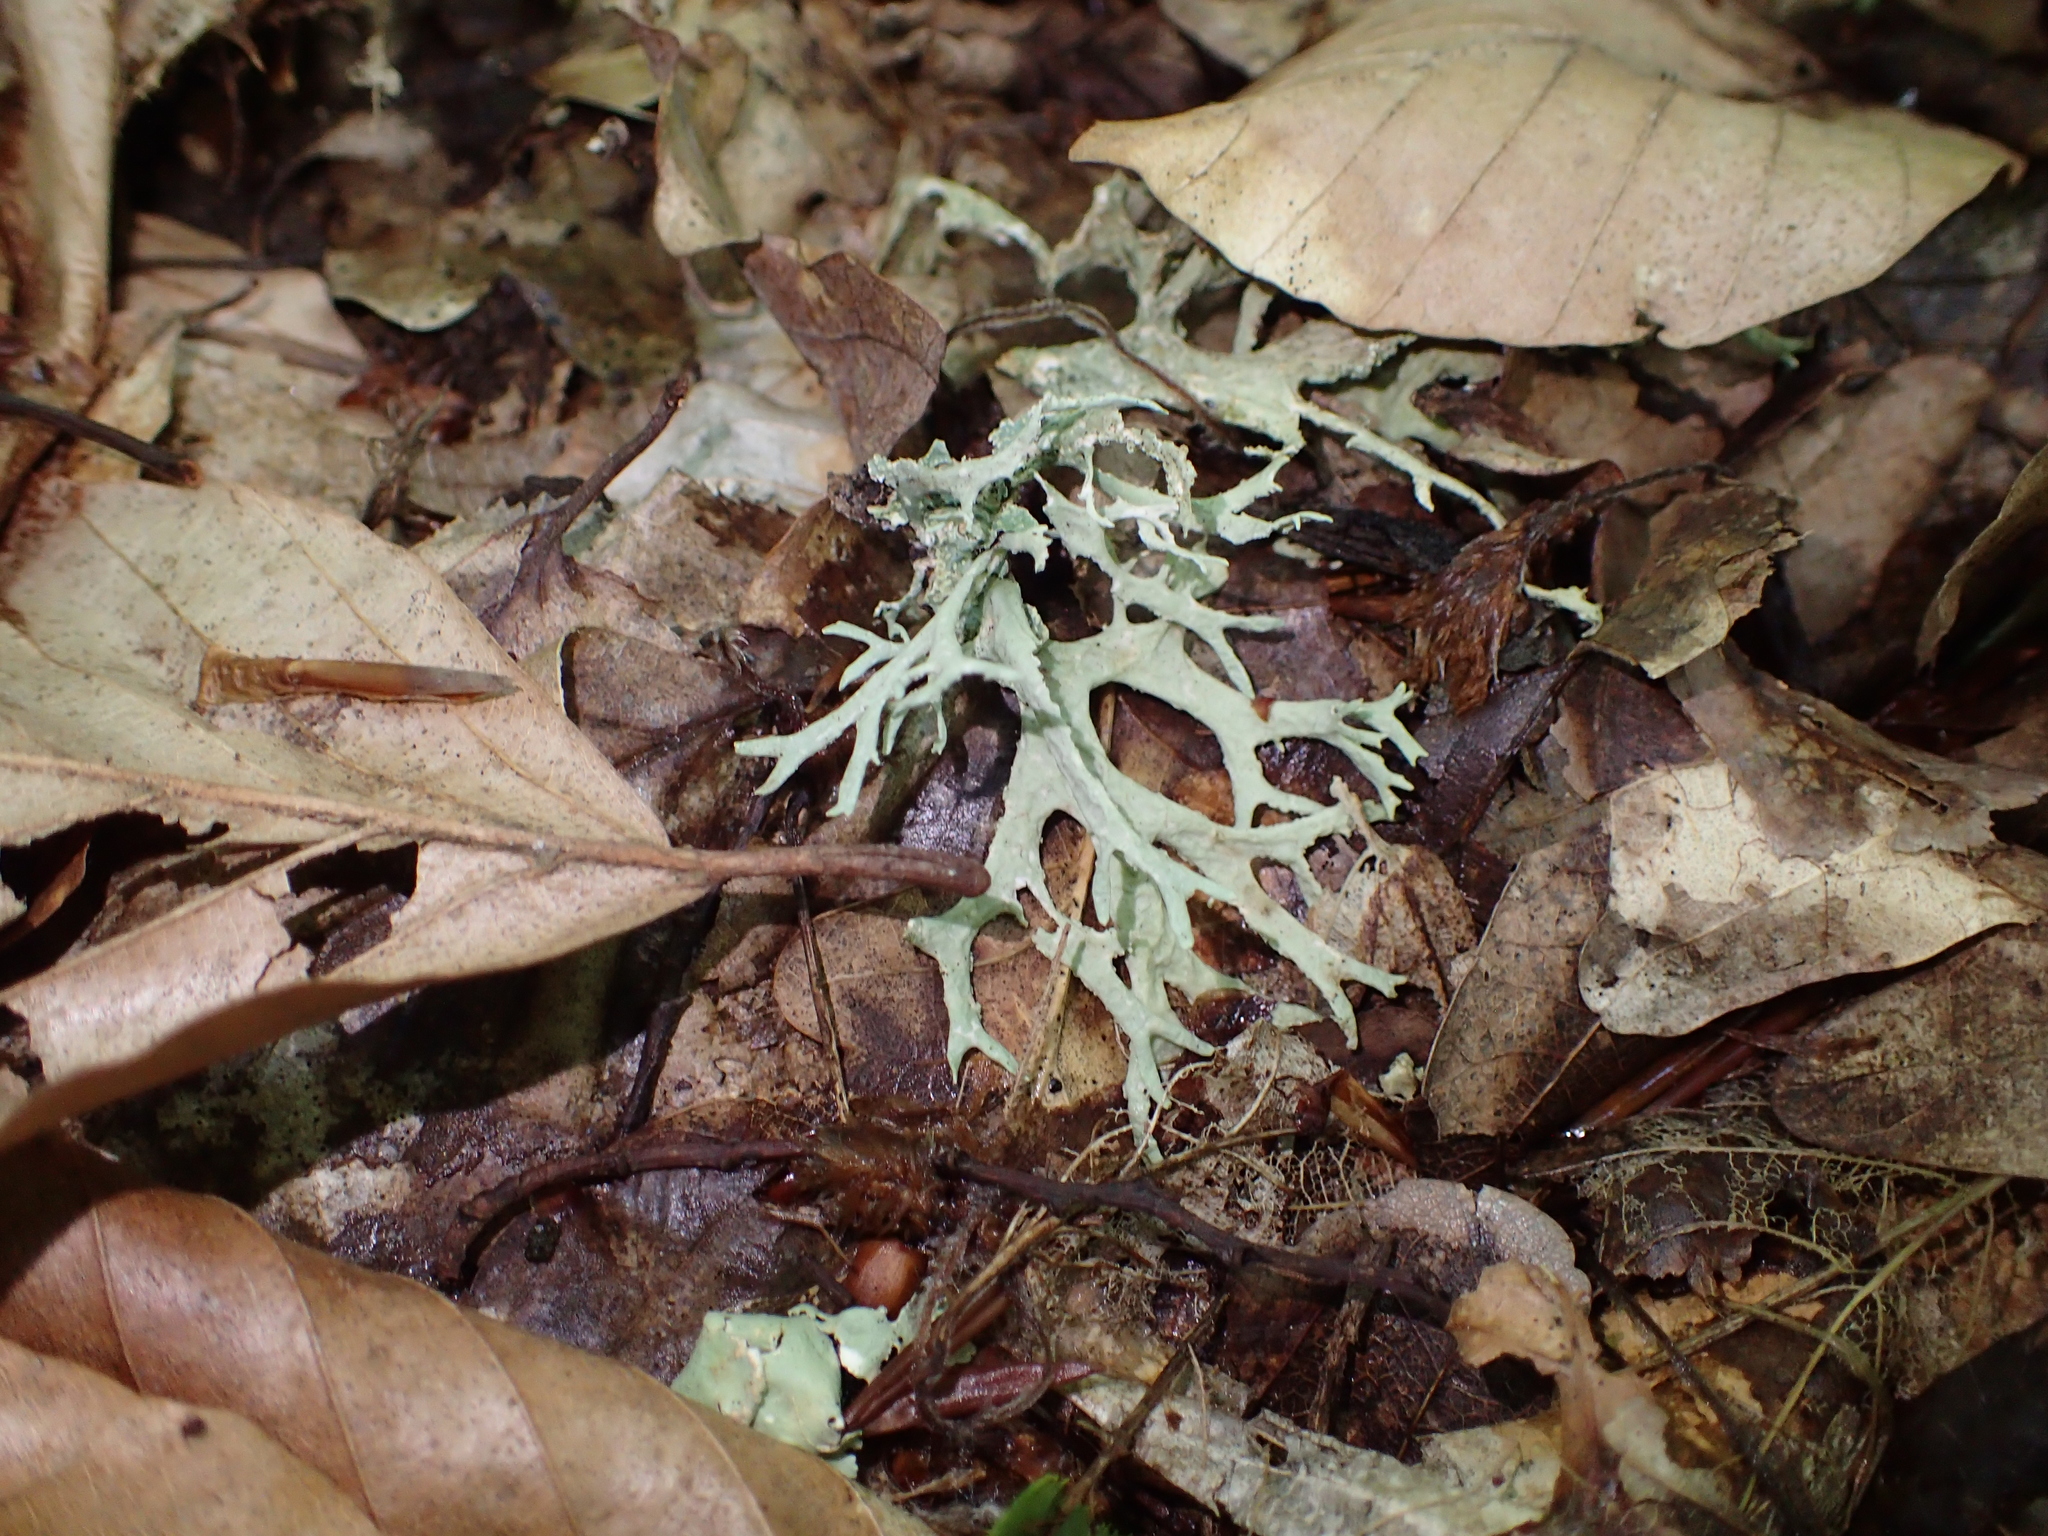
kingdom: Fungi
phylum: Ascomycota
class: Lecanoromycetes
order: Lecanorales
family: Parmeliaceae
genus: Evernia
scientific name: Evernia prunastri
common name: Oak moss
